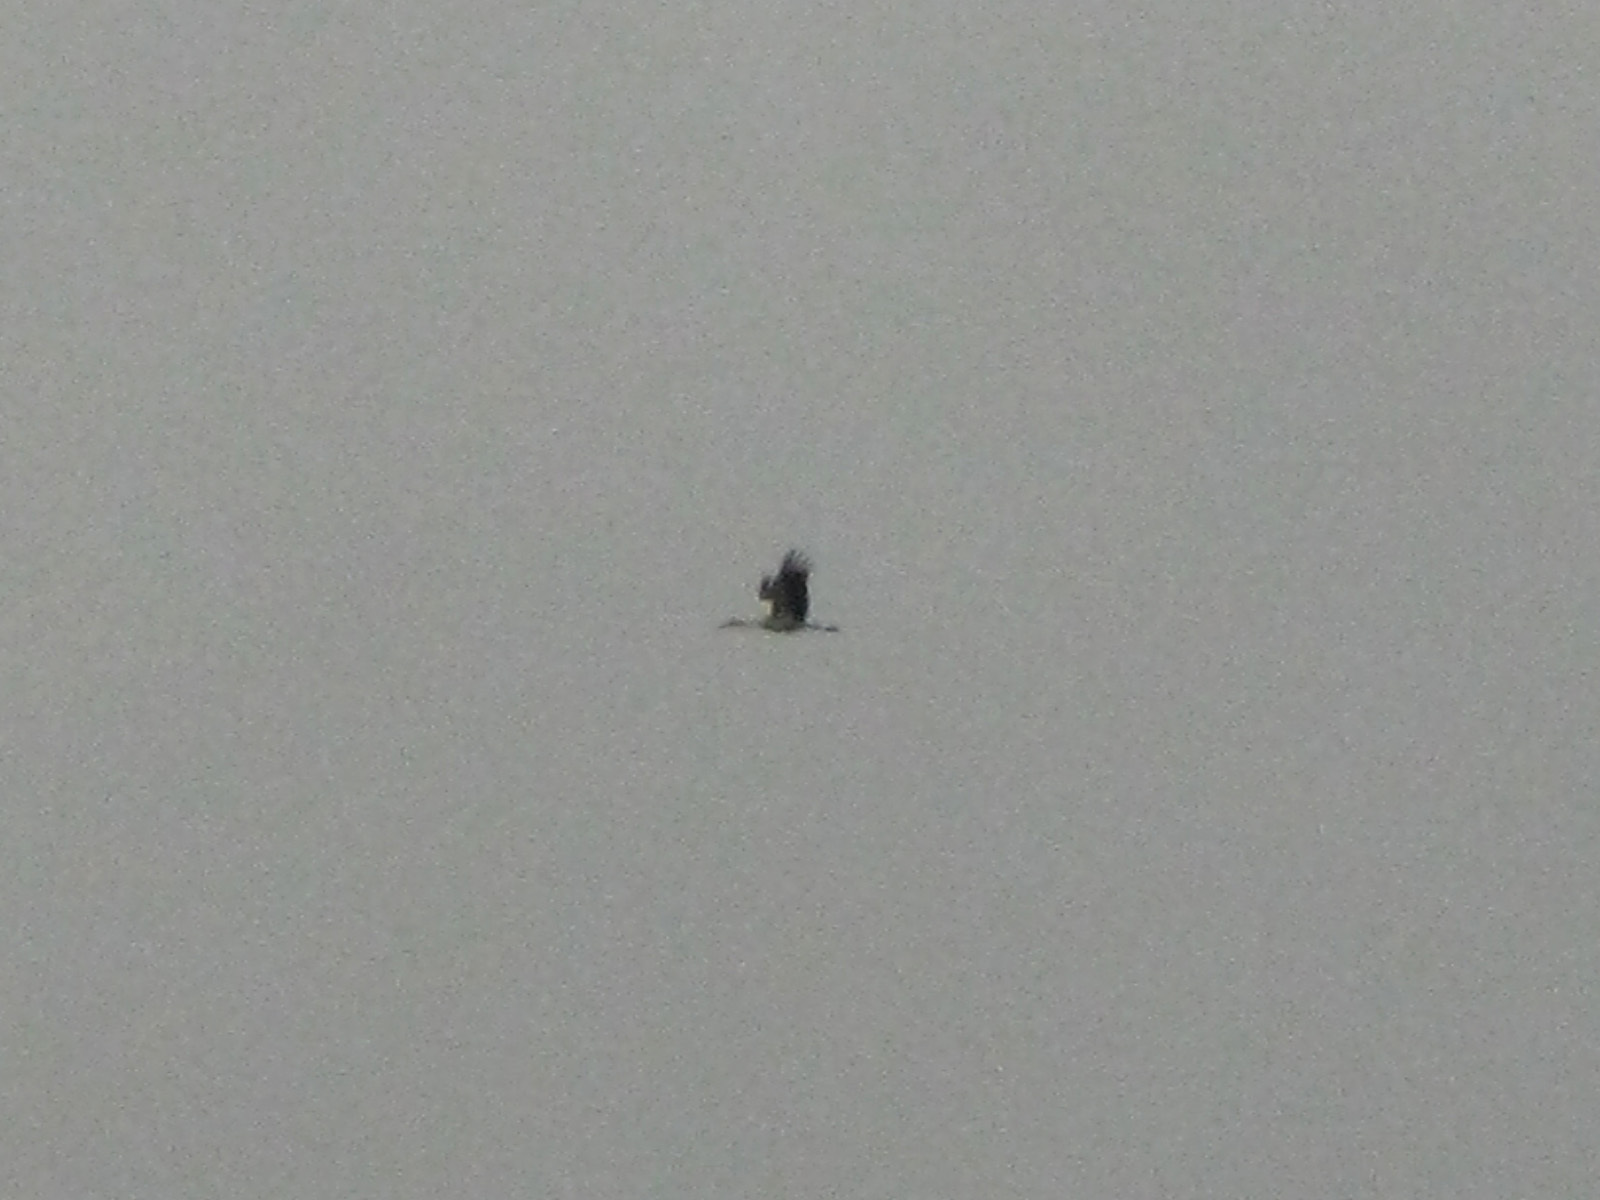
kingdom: Animalia
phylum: Chordata
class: Aves
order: Ciconiiformes
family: Ciconiidae
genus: Ciconia
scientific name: Ciconia ciconia
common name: White stork
